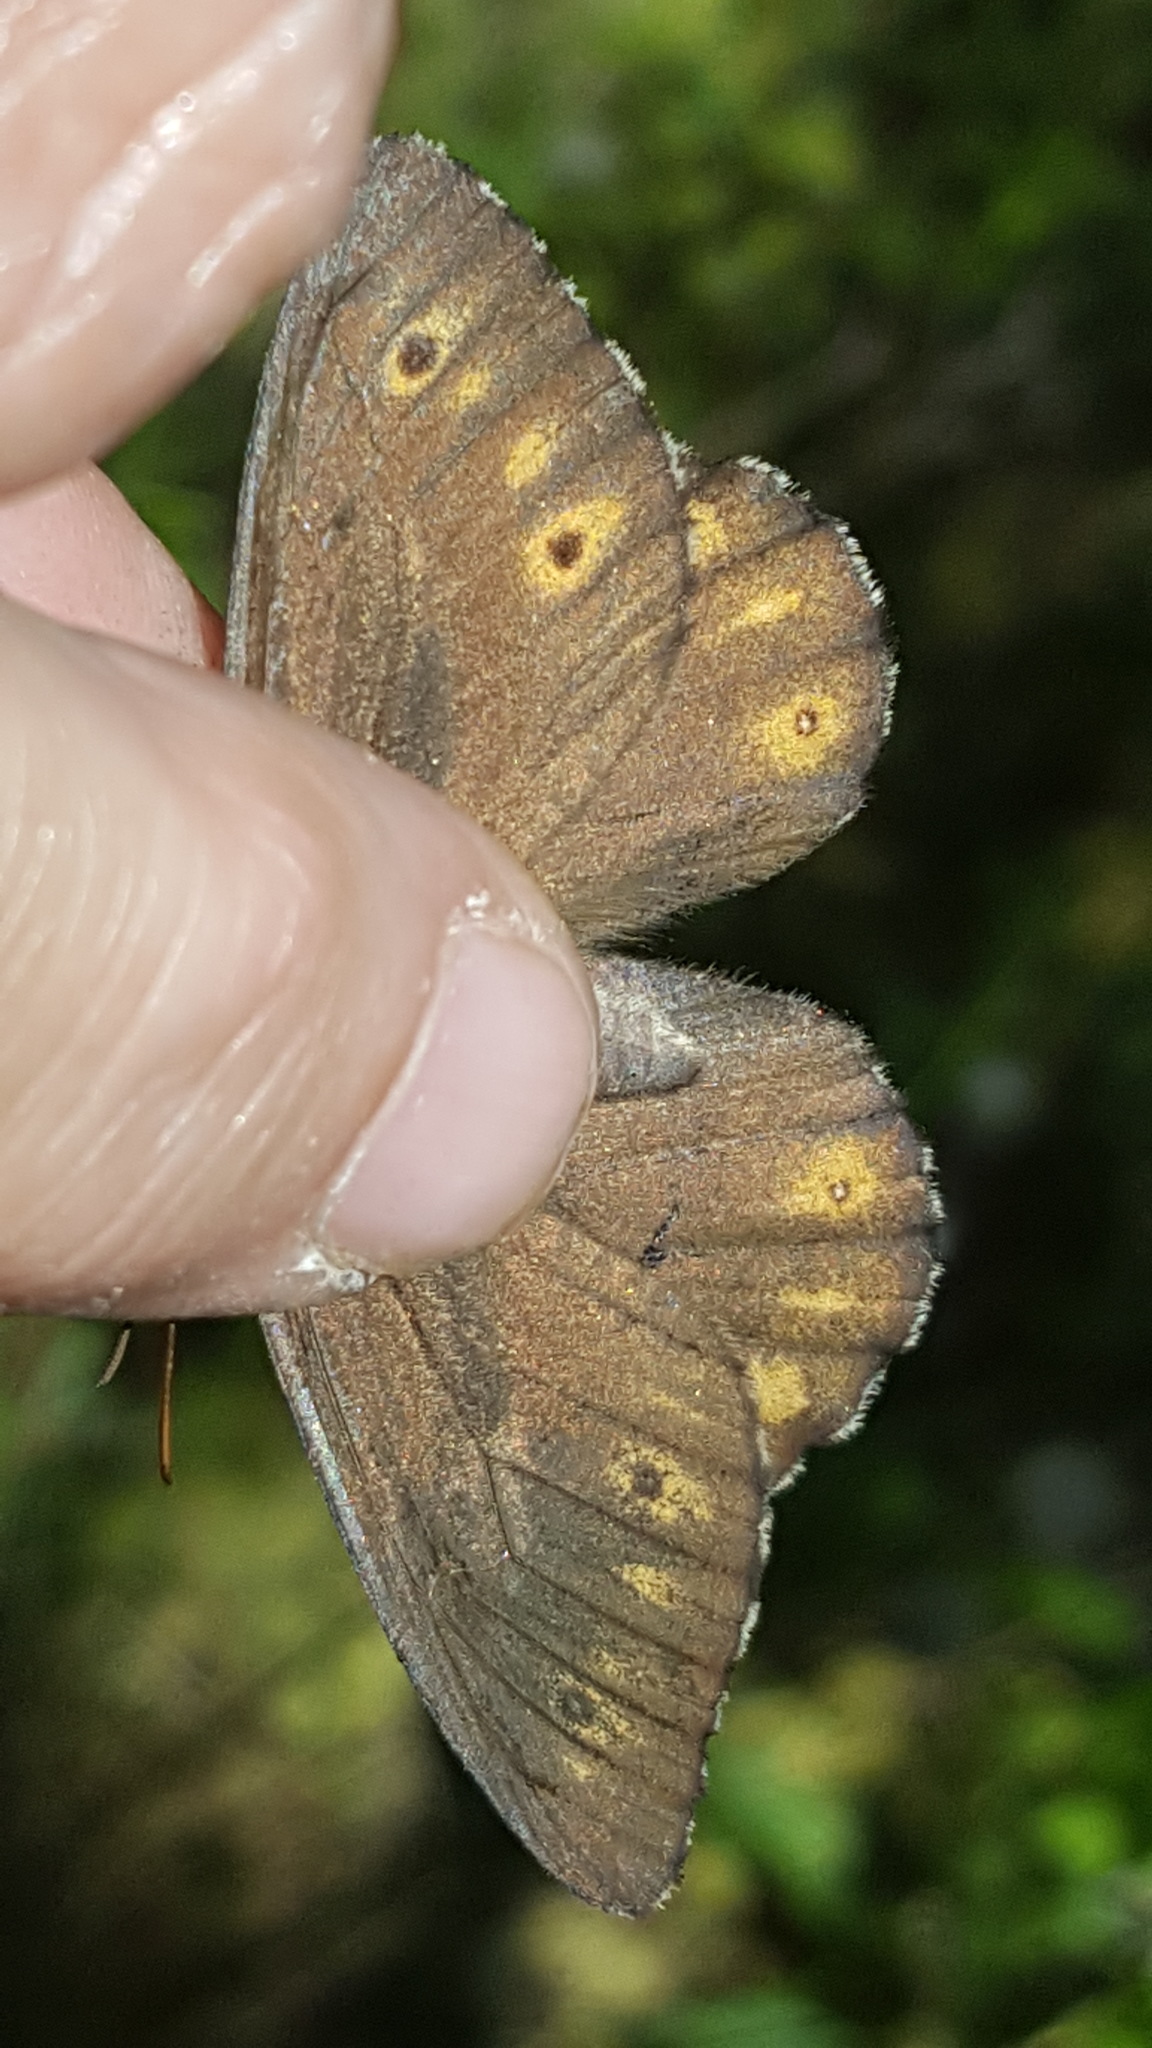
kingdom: Animalia
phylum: Arthropoda
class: Insecta
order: Lepidoptera
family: Nymphalidae
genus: Oeneis
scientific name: Oeneis jutta
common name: Baltic grayling
